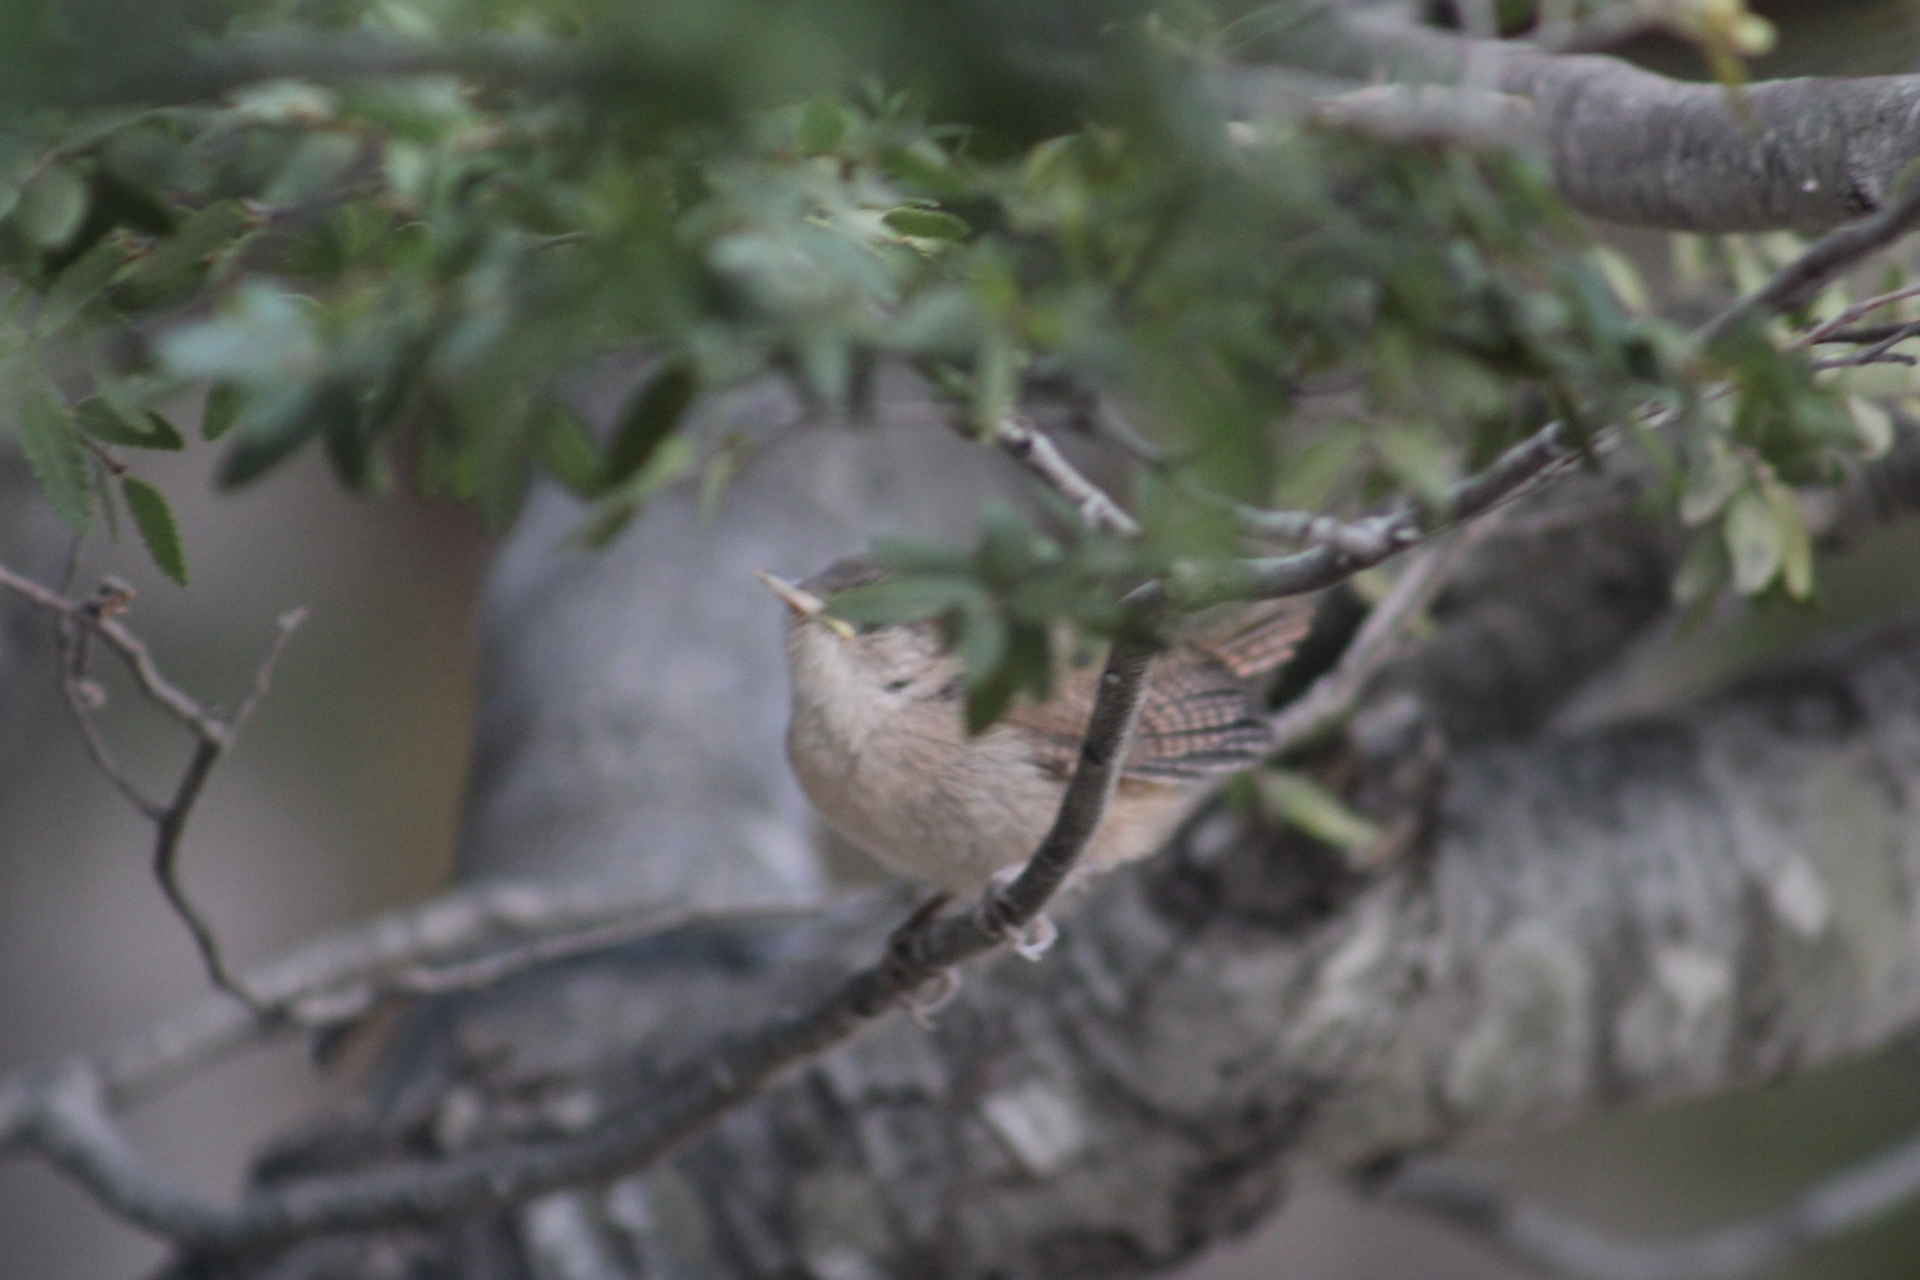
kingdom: Animalia
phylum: Chordata
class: Aves
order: Passeriformes
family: Troglodytidae
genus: Troglodytes
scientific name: Troglodytes aedon
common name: House wren
